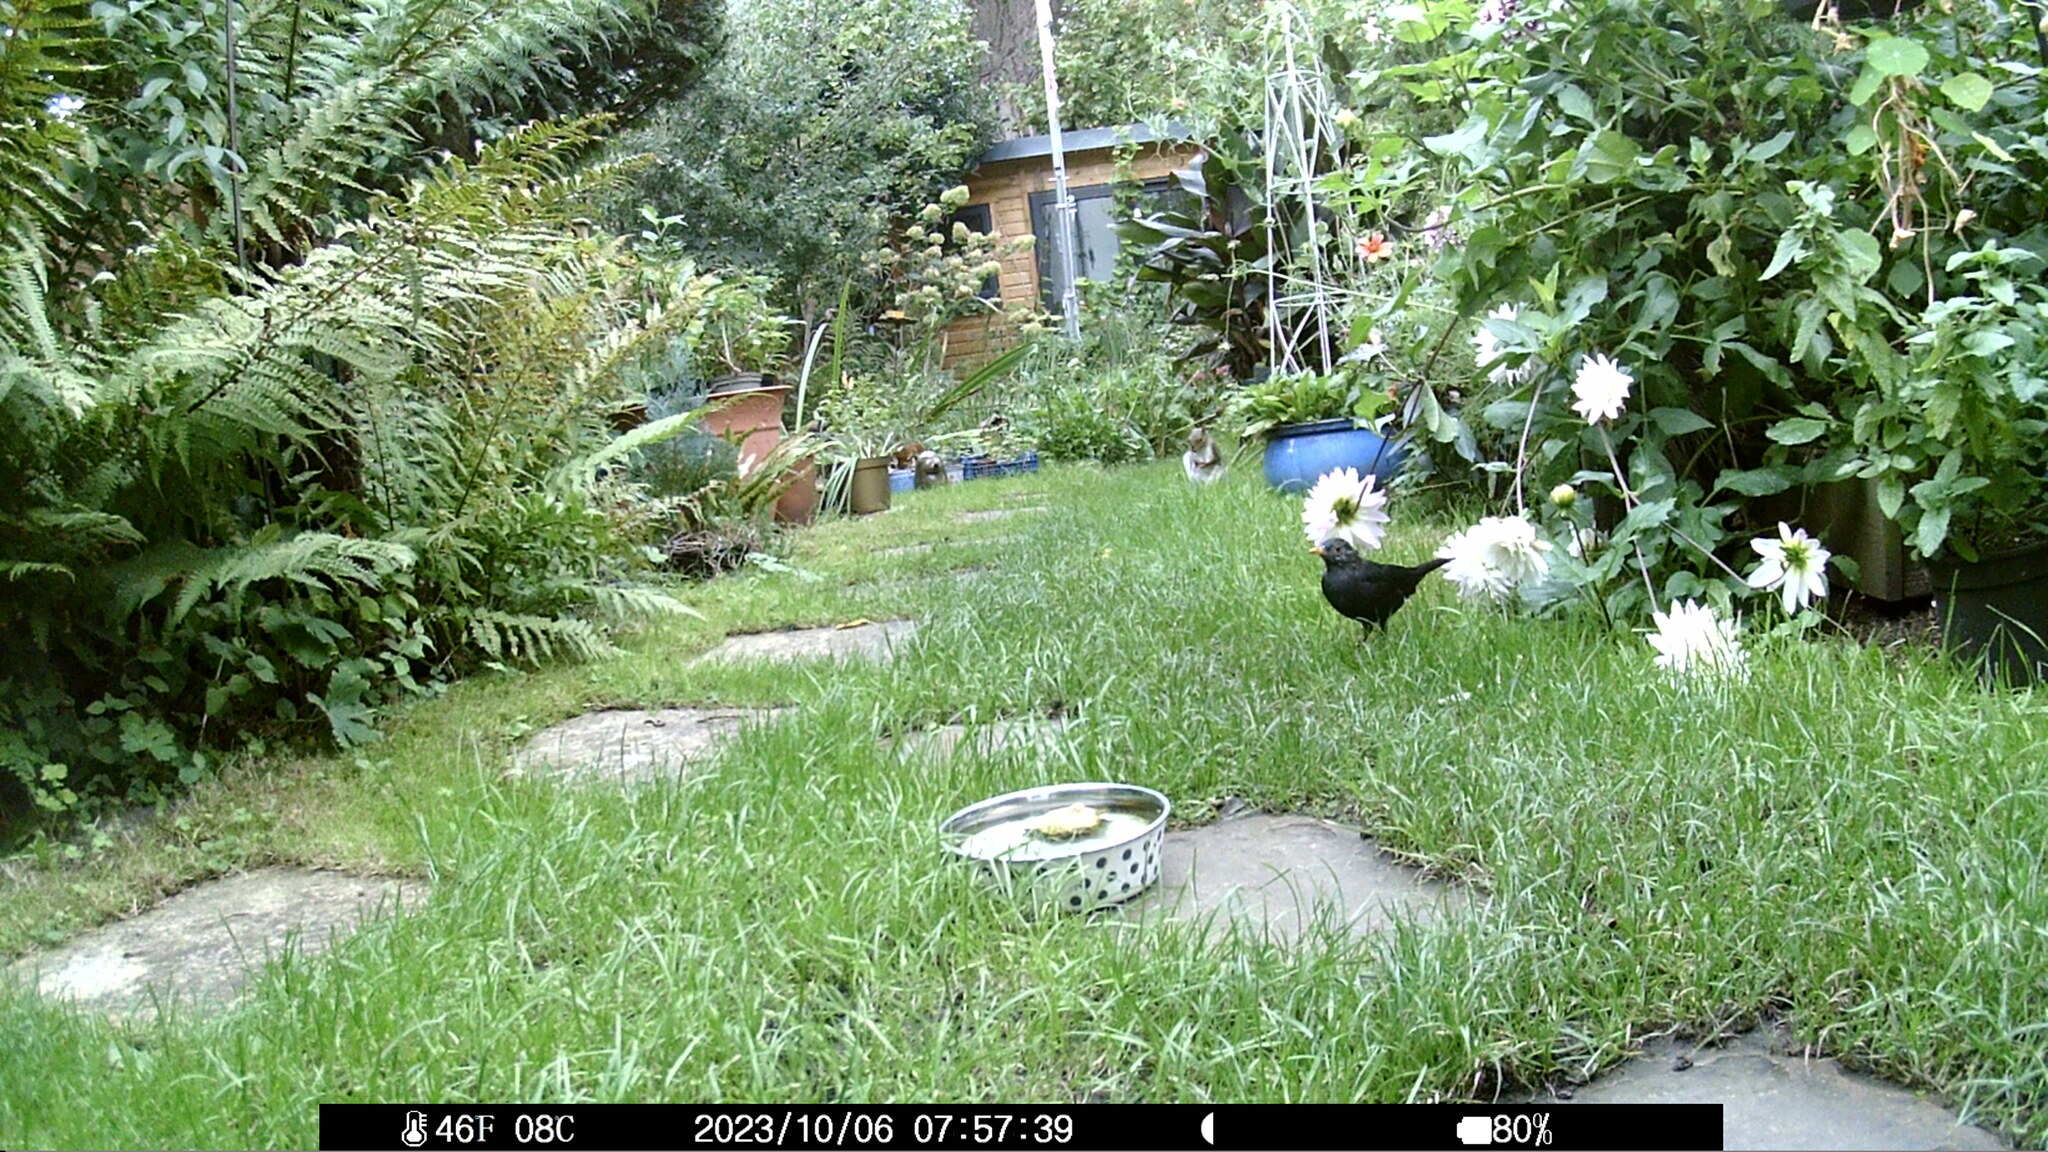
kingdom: Animalia
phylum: Chordata
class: Aves
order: Passeriformes
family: Turdidae
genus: Turdus
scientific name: Turdus merula
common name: Common blackbird
